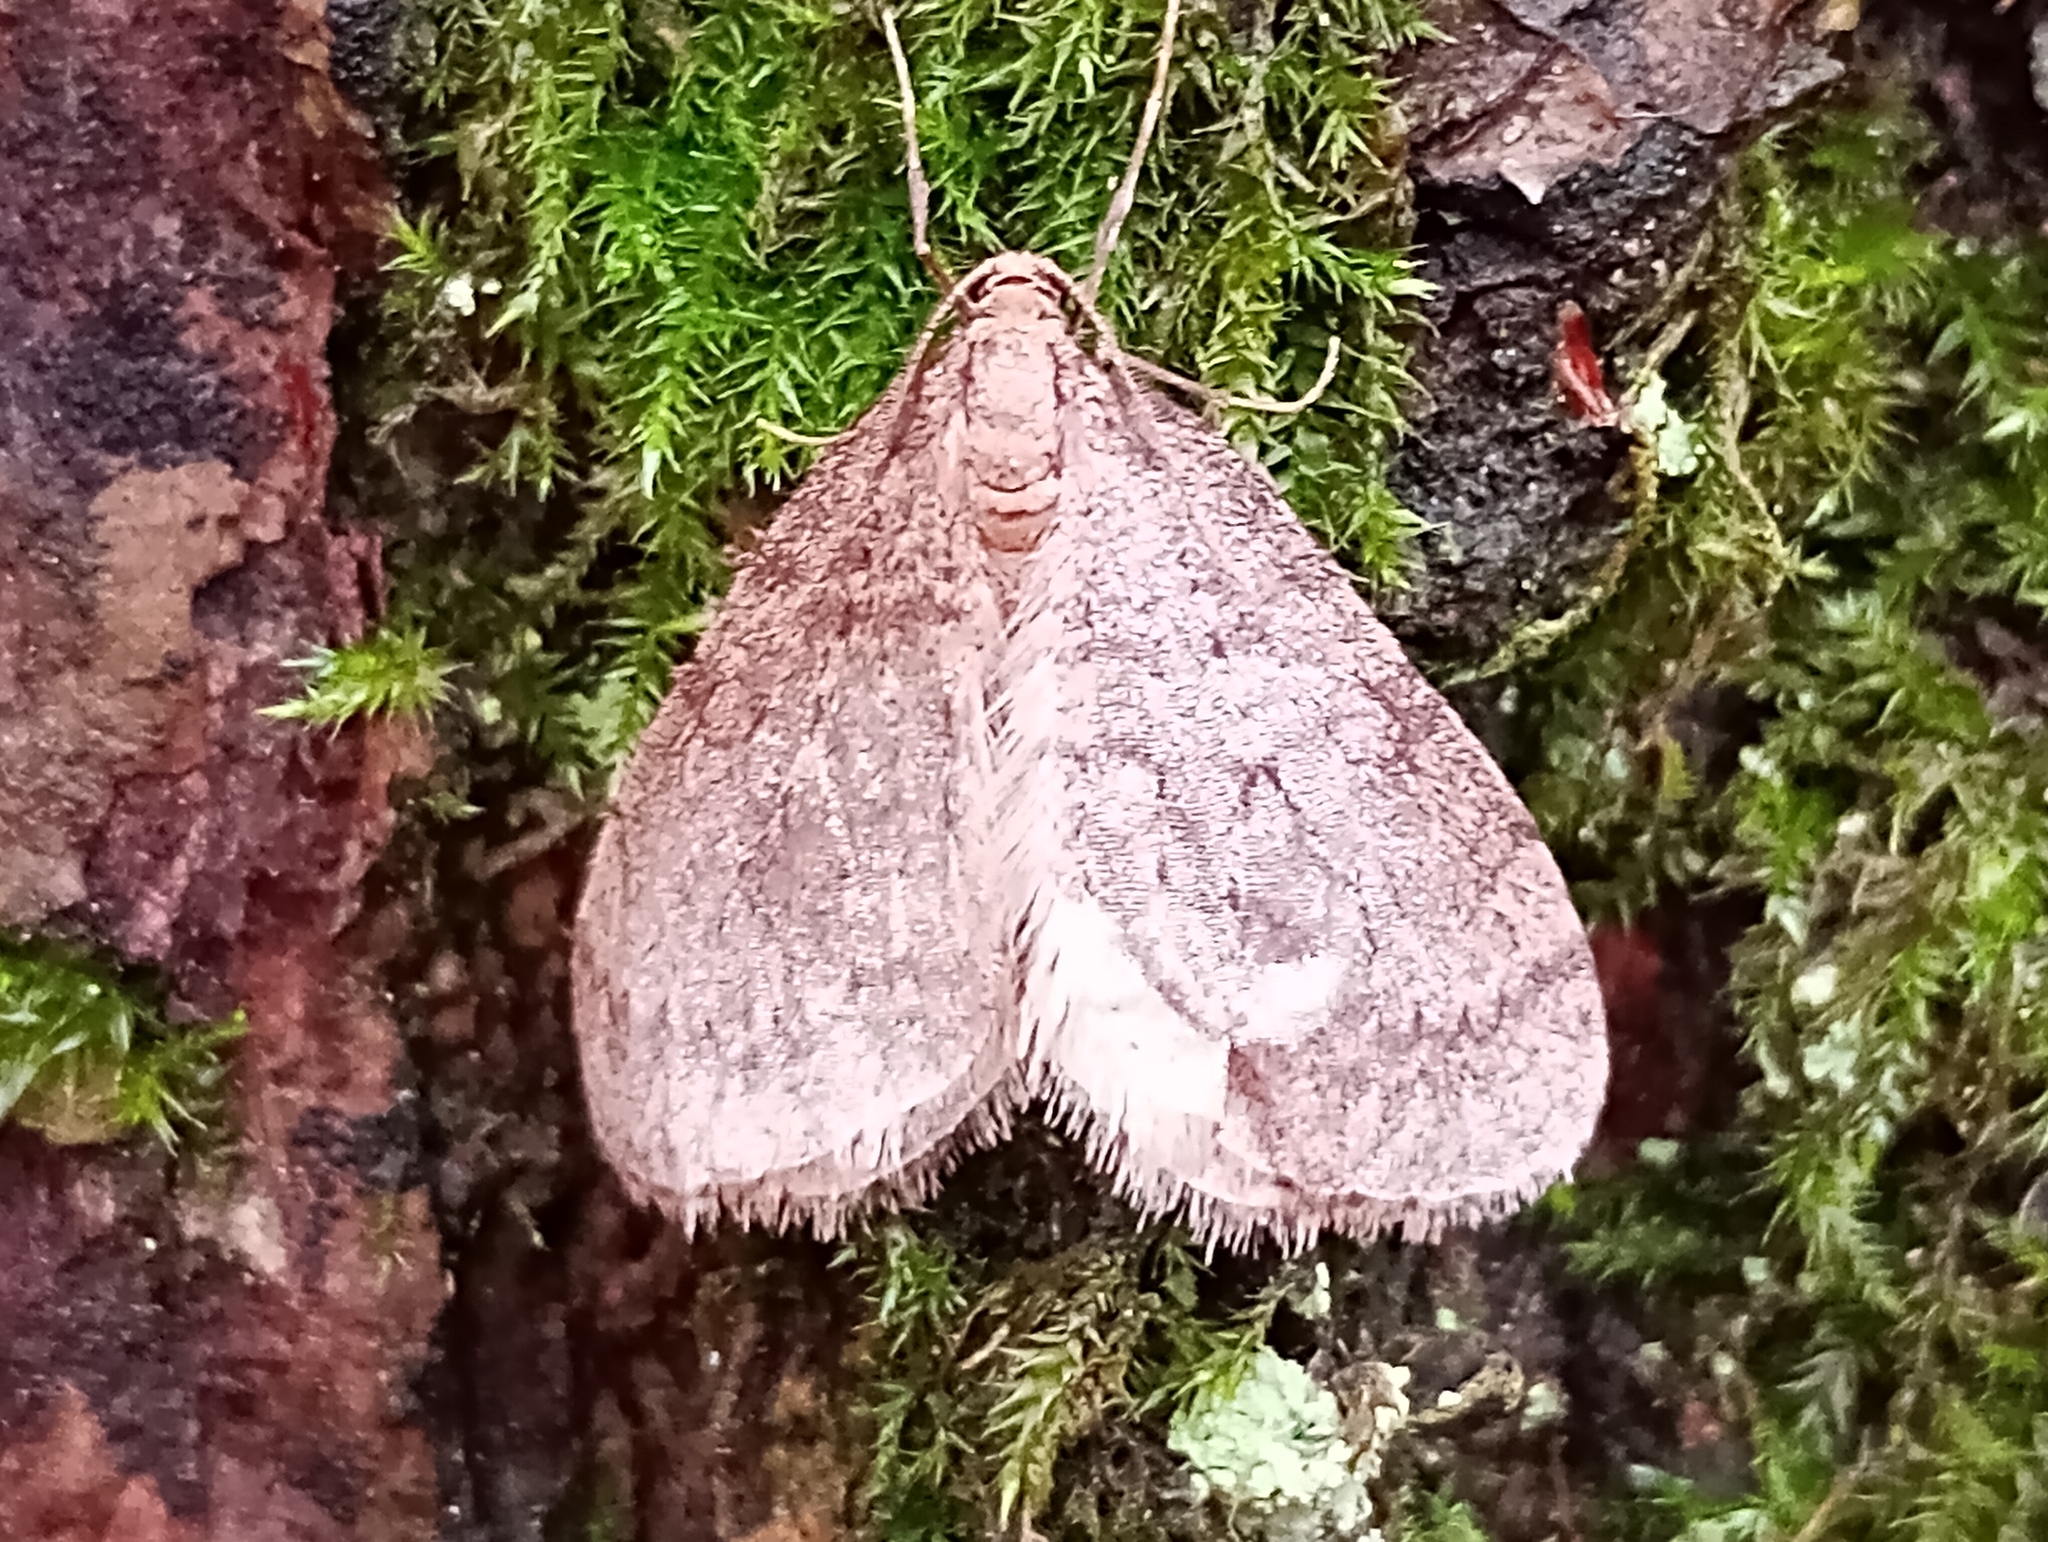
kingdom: Animalia
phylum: Arthropoda
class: Insecta
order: Lepidoptera
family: Geometridae
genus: Operophtera
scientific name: Operophtera brumata
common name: Winter moth
